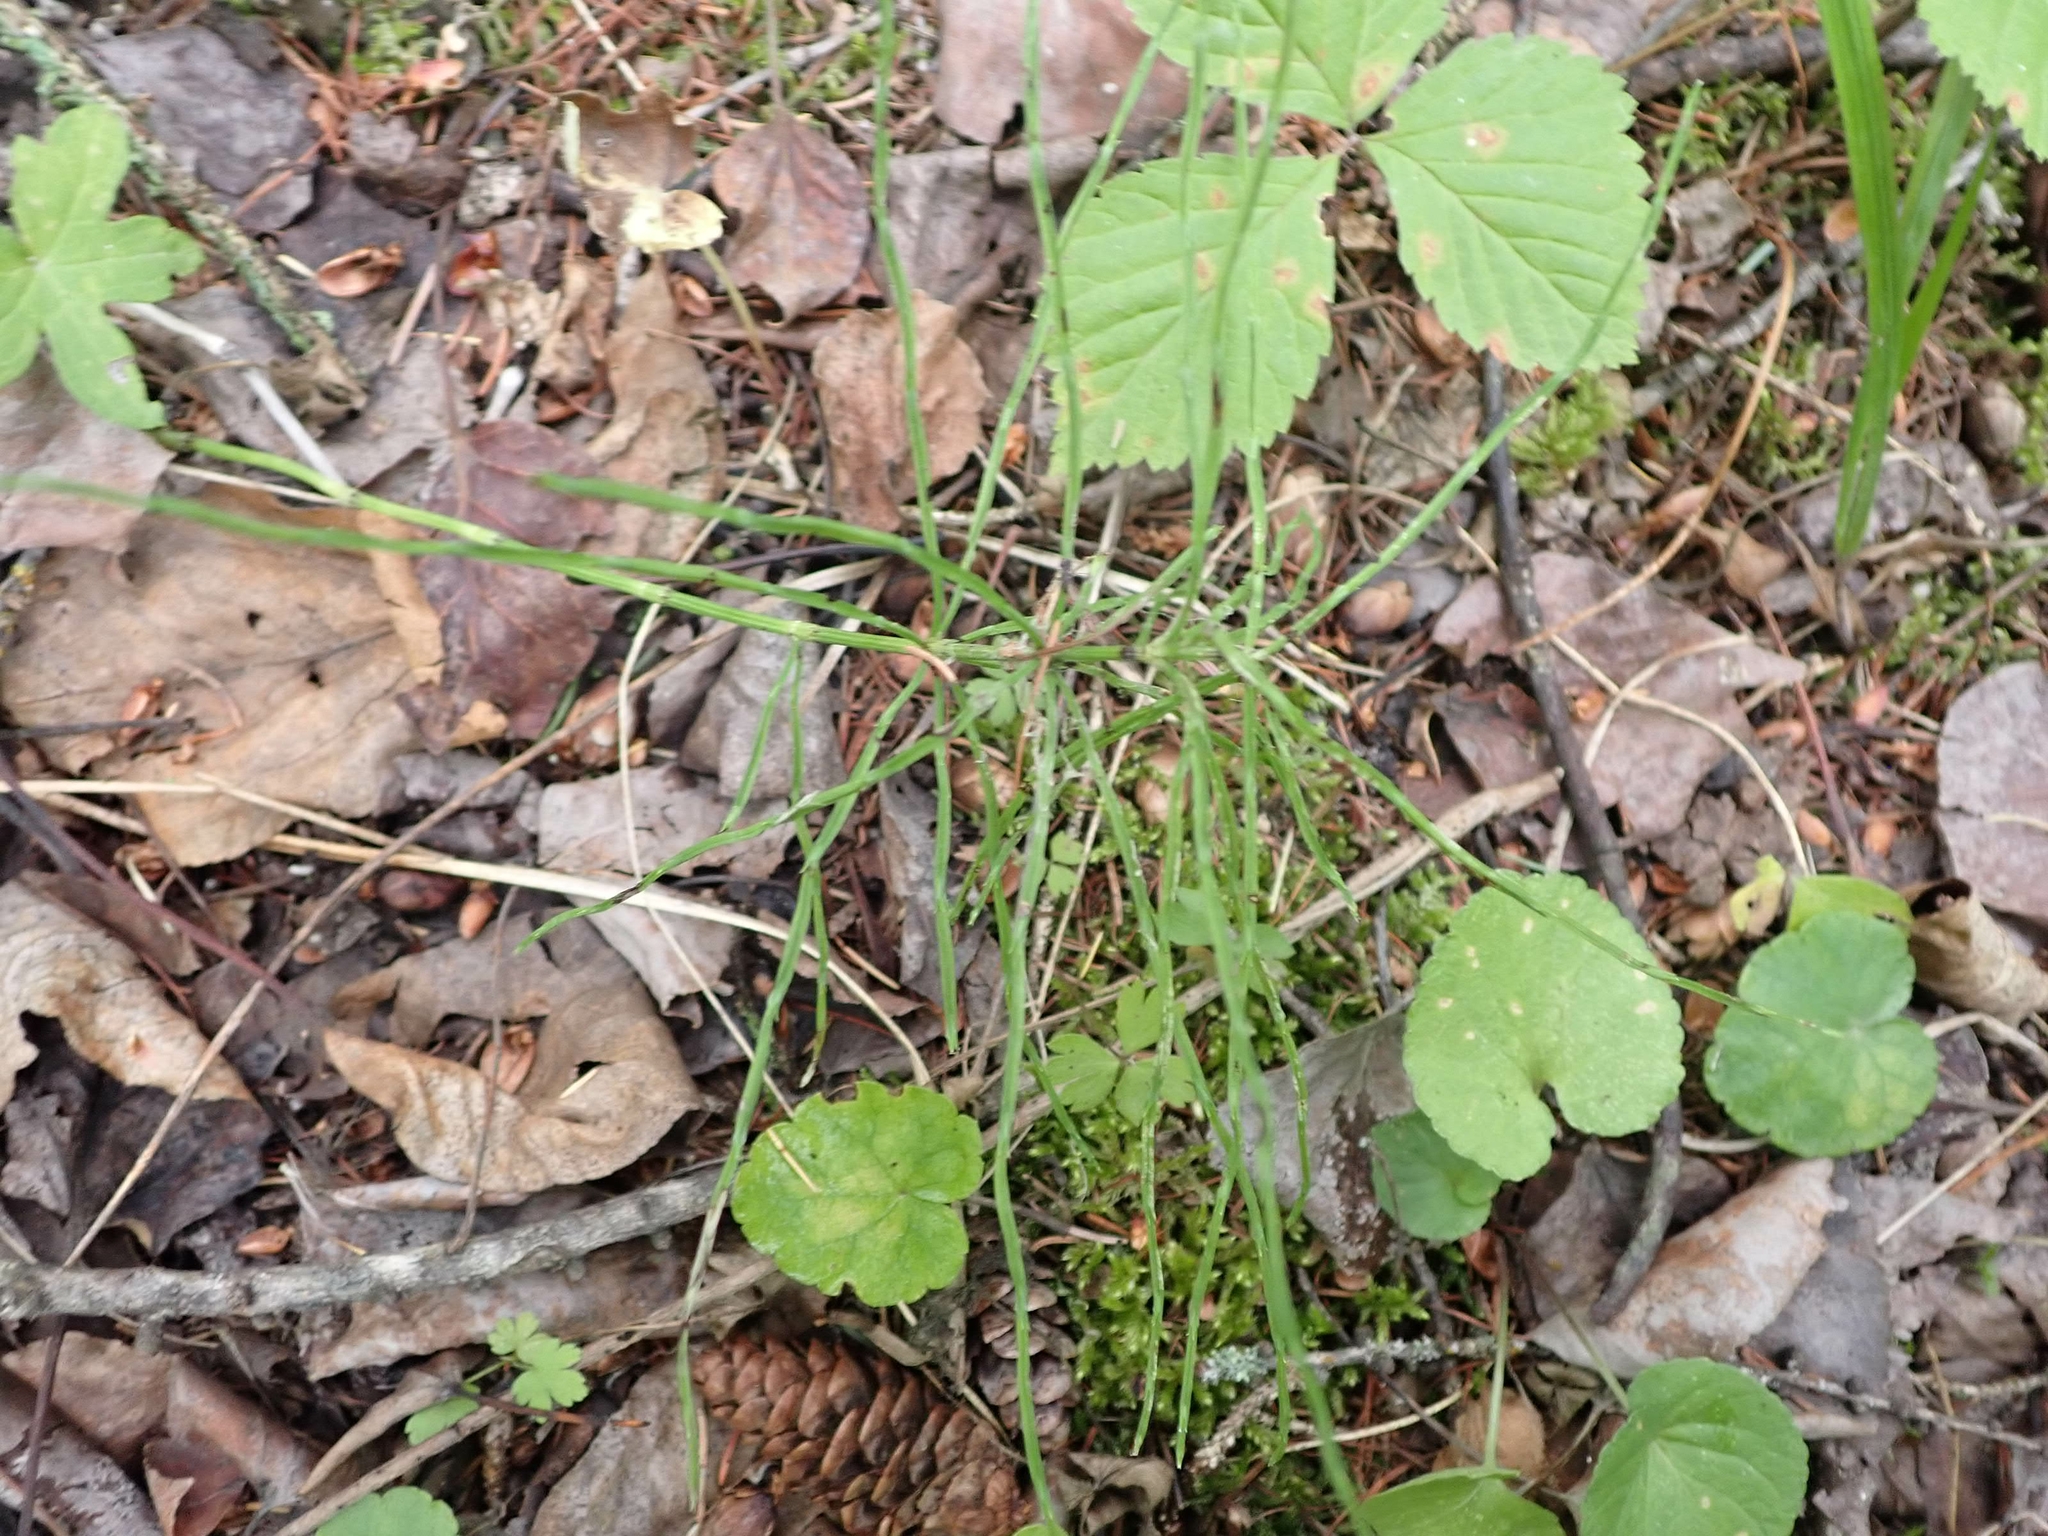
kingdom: Plantae
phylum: Tracheophyta
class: Polypodiopsida
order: Equisetales
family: Equisetaceae
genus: Equisetum
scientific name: Equisetum pratense
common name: Meadow horsetail
